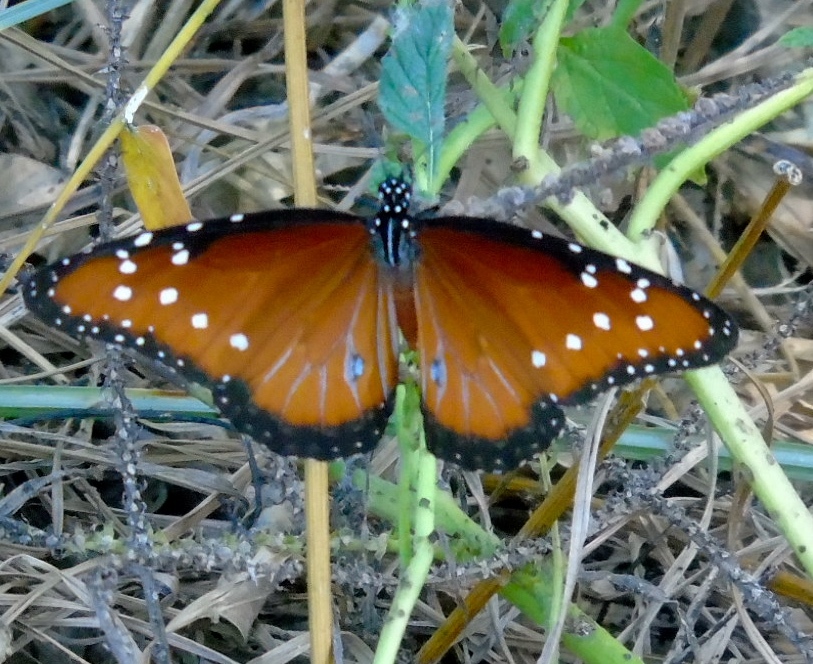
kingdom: Animalia
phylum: Arthropoda
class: Insecta
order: Lepidoptera
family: Nymphalidae
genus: Danaus
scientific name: Danaus gilippus
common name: Queen
